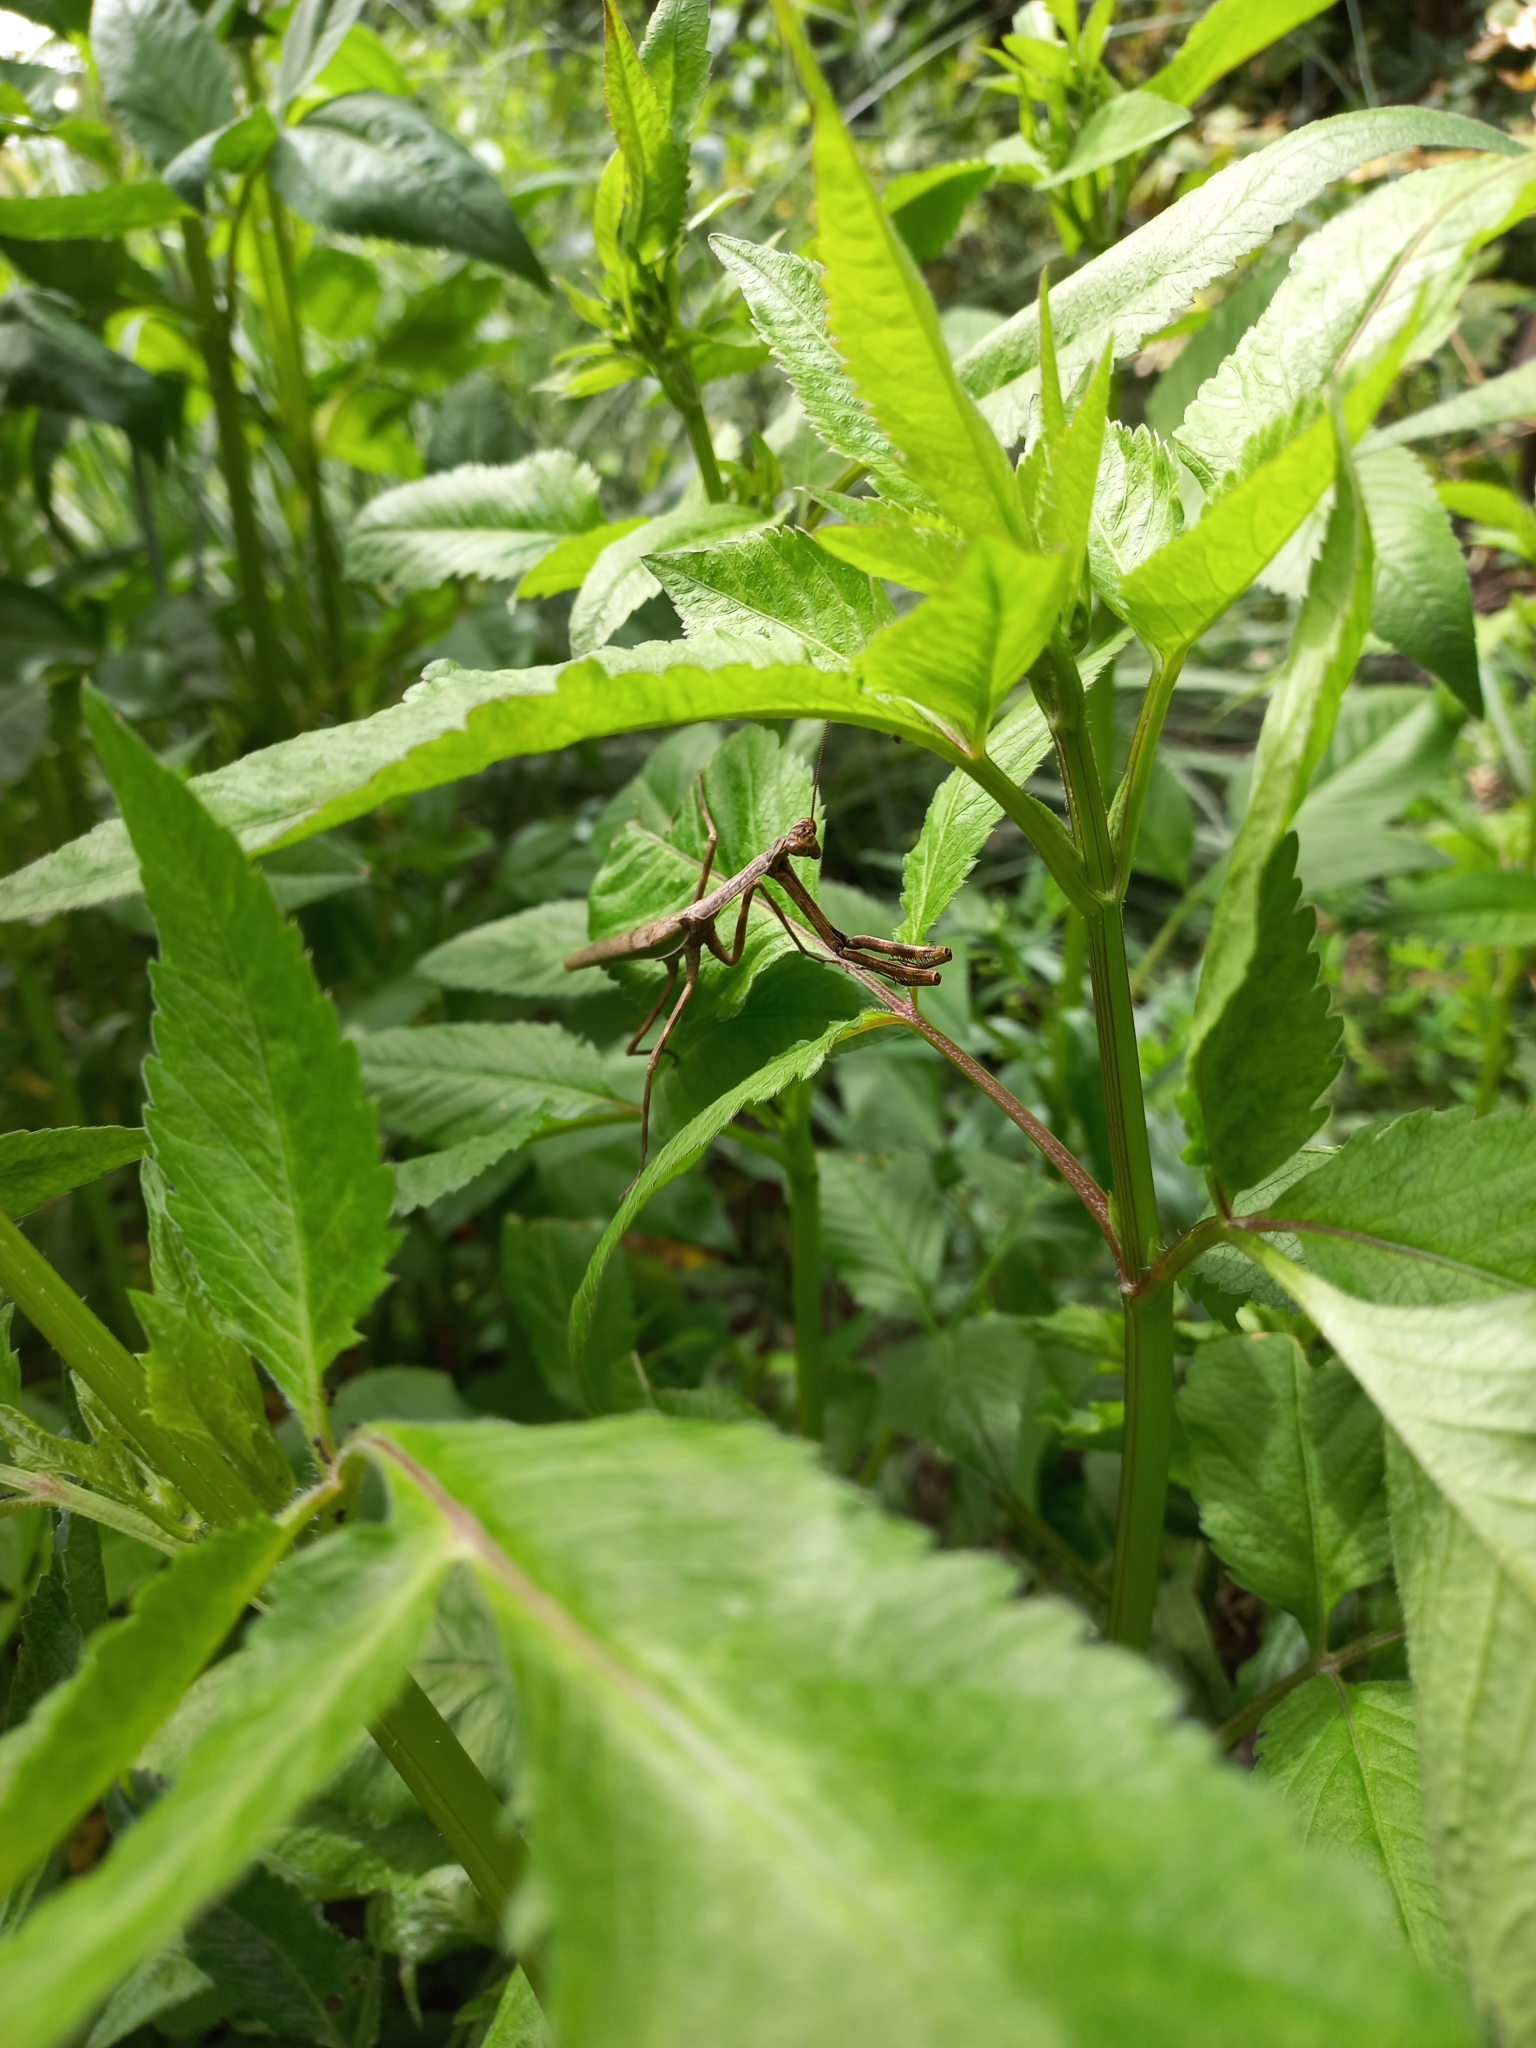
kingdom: Animalia
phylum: Arthropoda
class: Insecta
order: Mantodea
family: Mantidae
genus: Pseudovates
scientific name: Pseudovates iheringi
